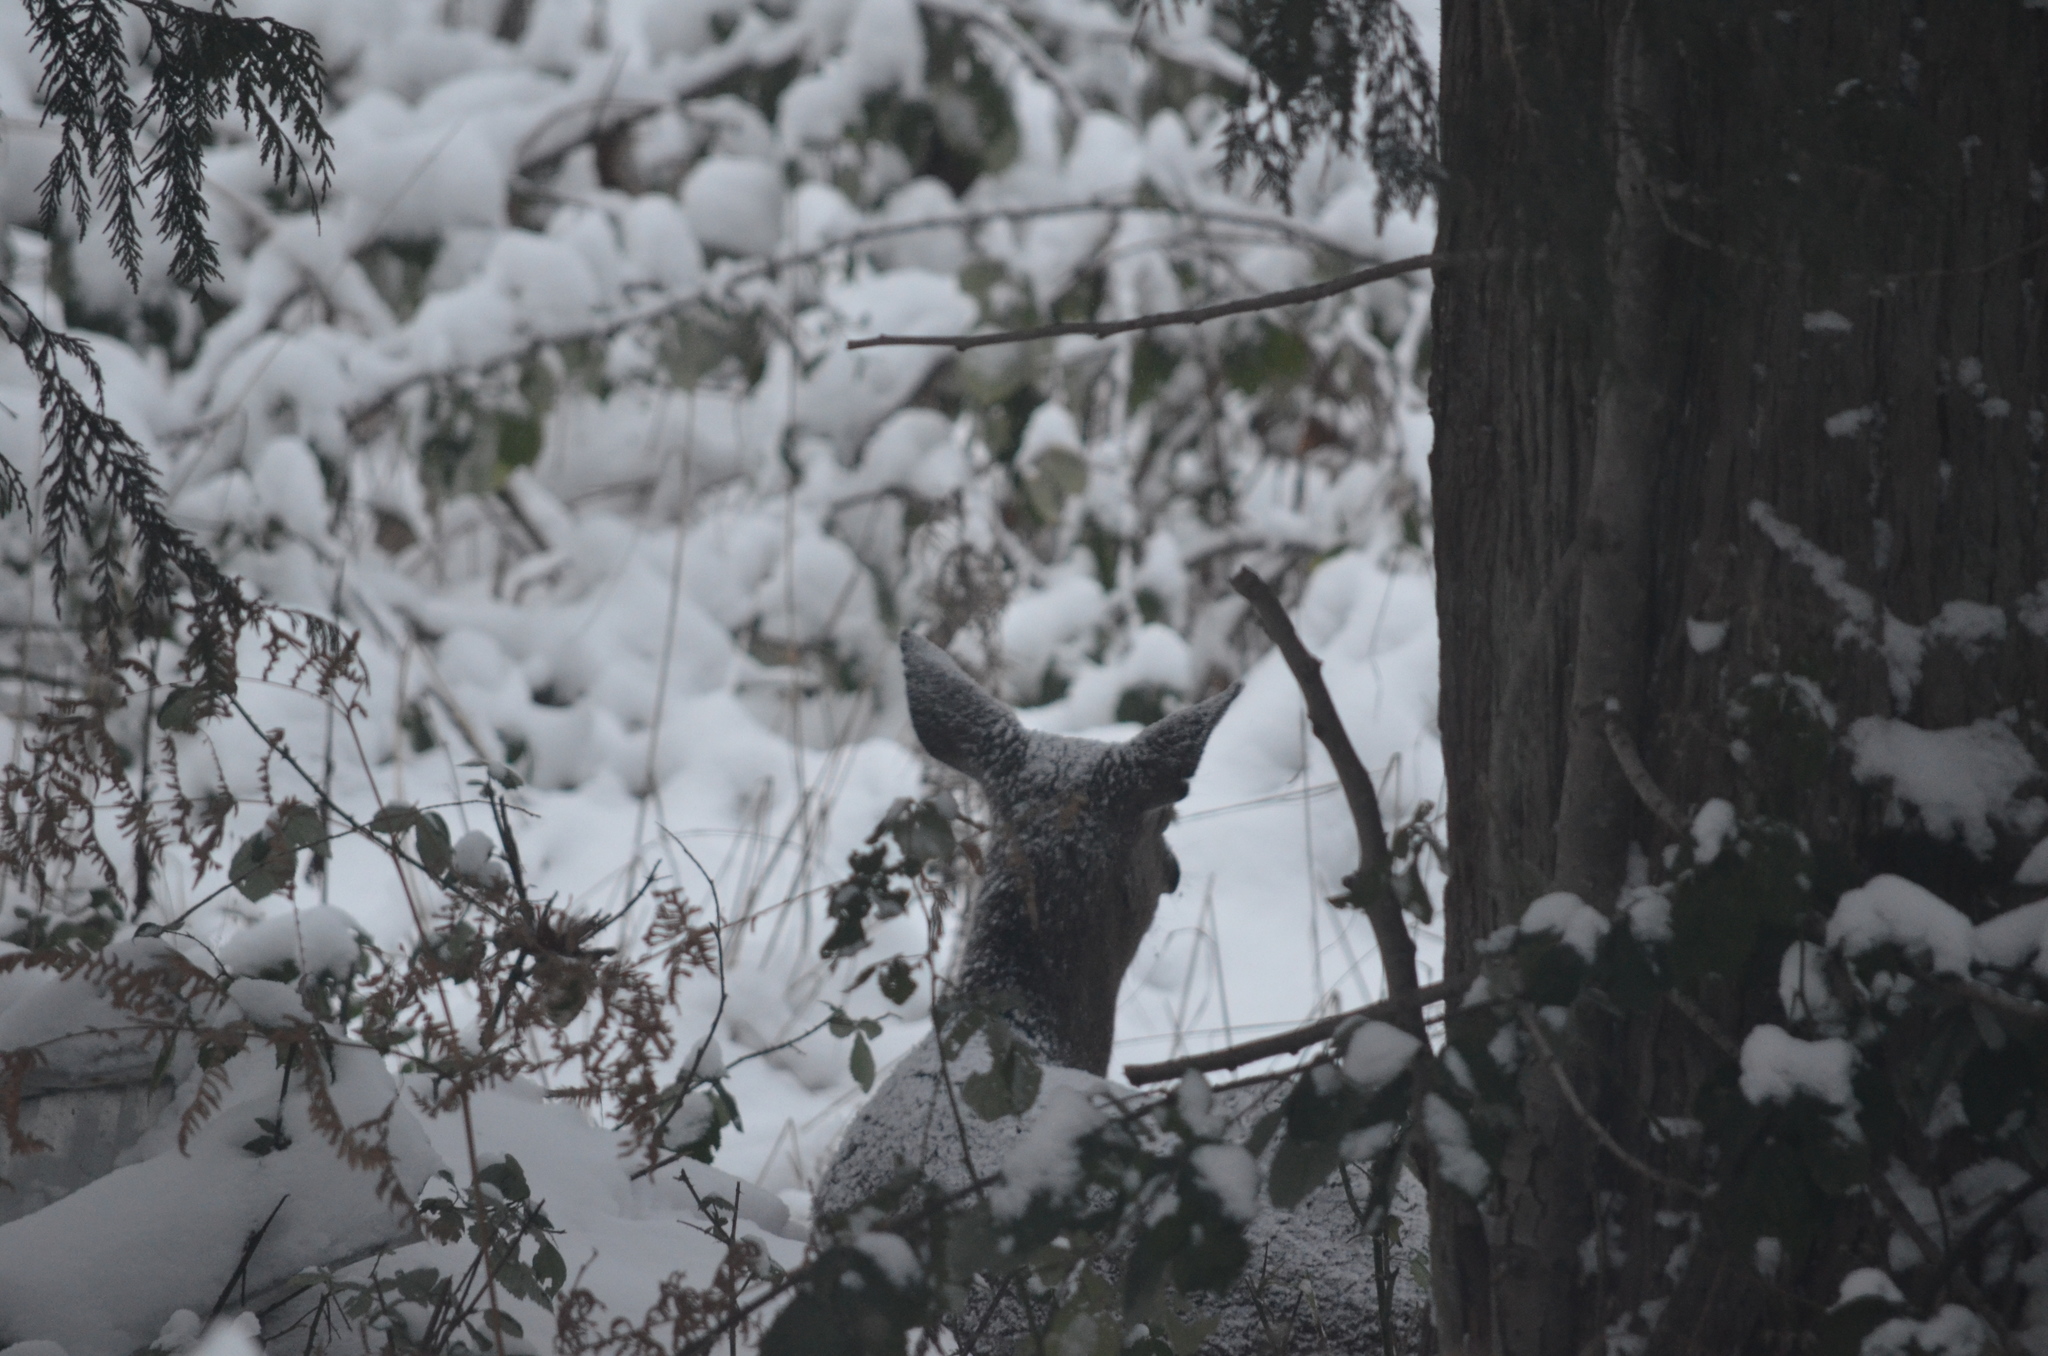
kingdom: Animalia
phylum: Chordata
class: Mammalia
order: Artiodactyla
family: Cervidae
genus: Odocoileus
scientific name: Odocoileus hemionus
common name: Mule deer
